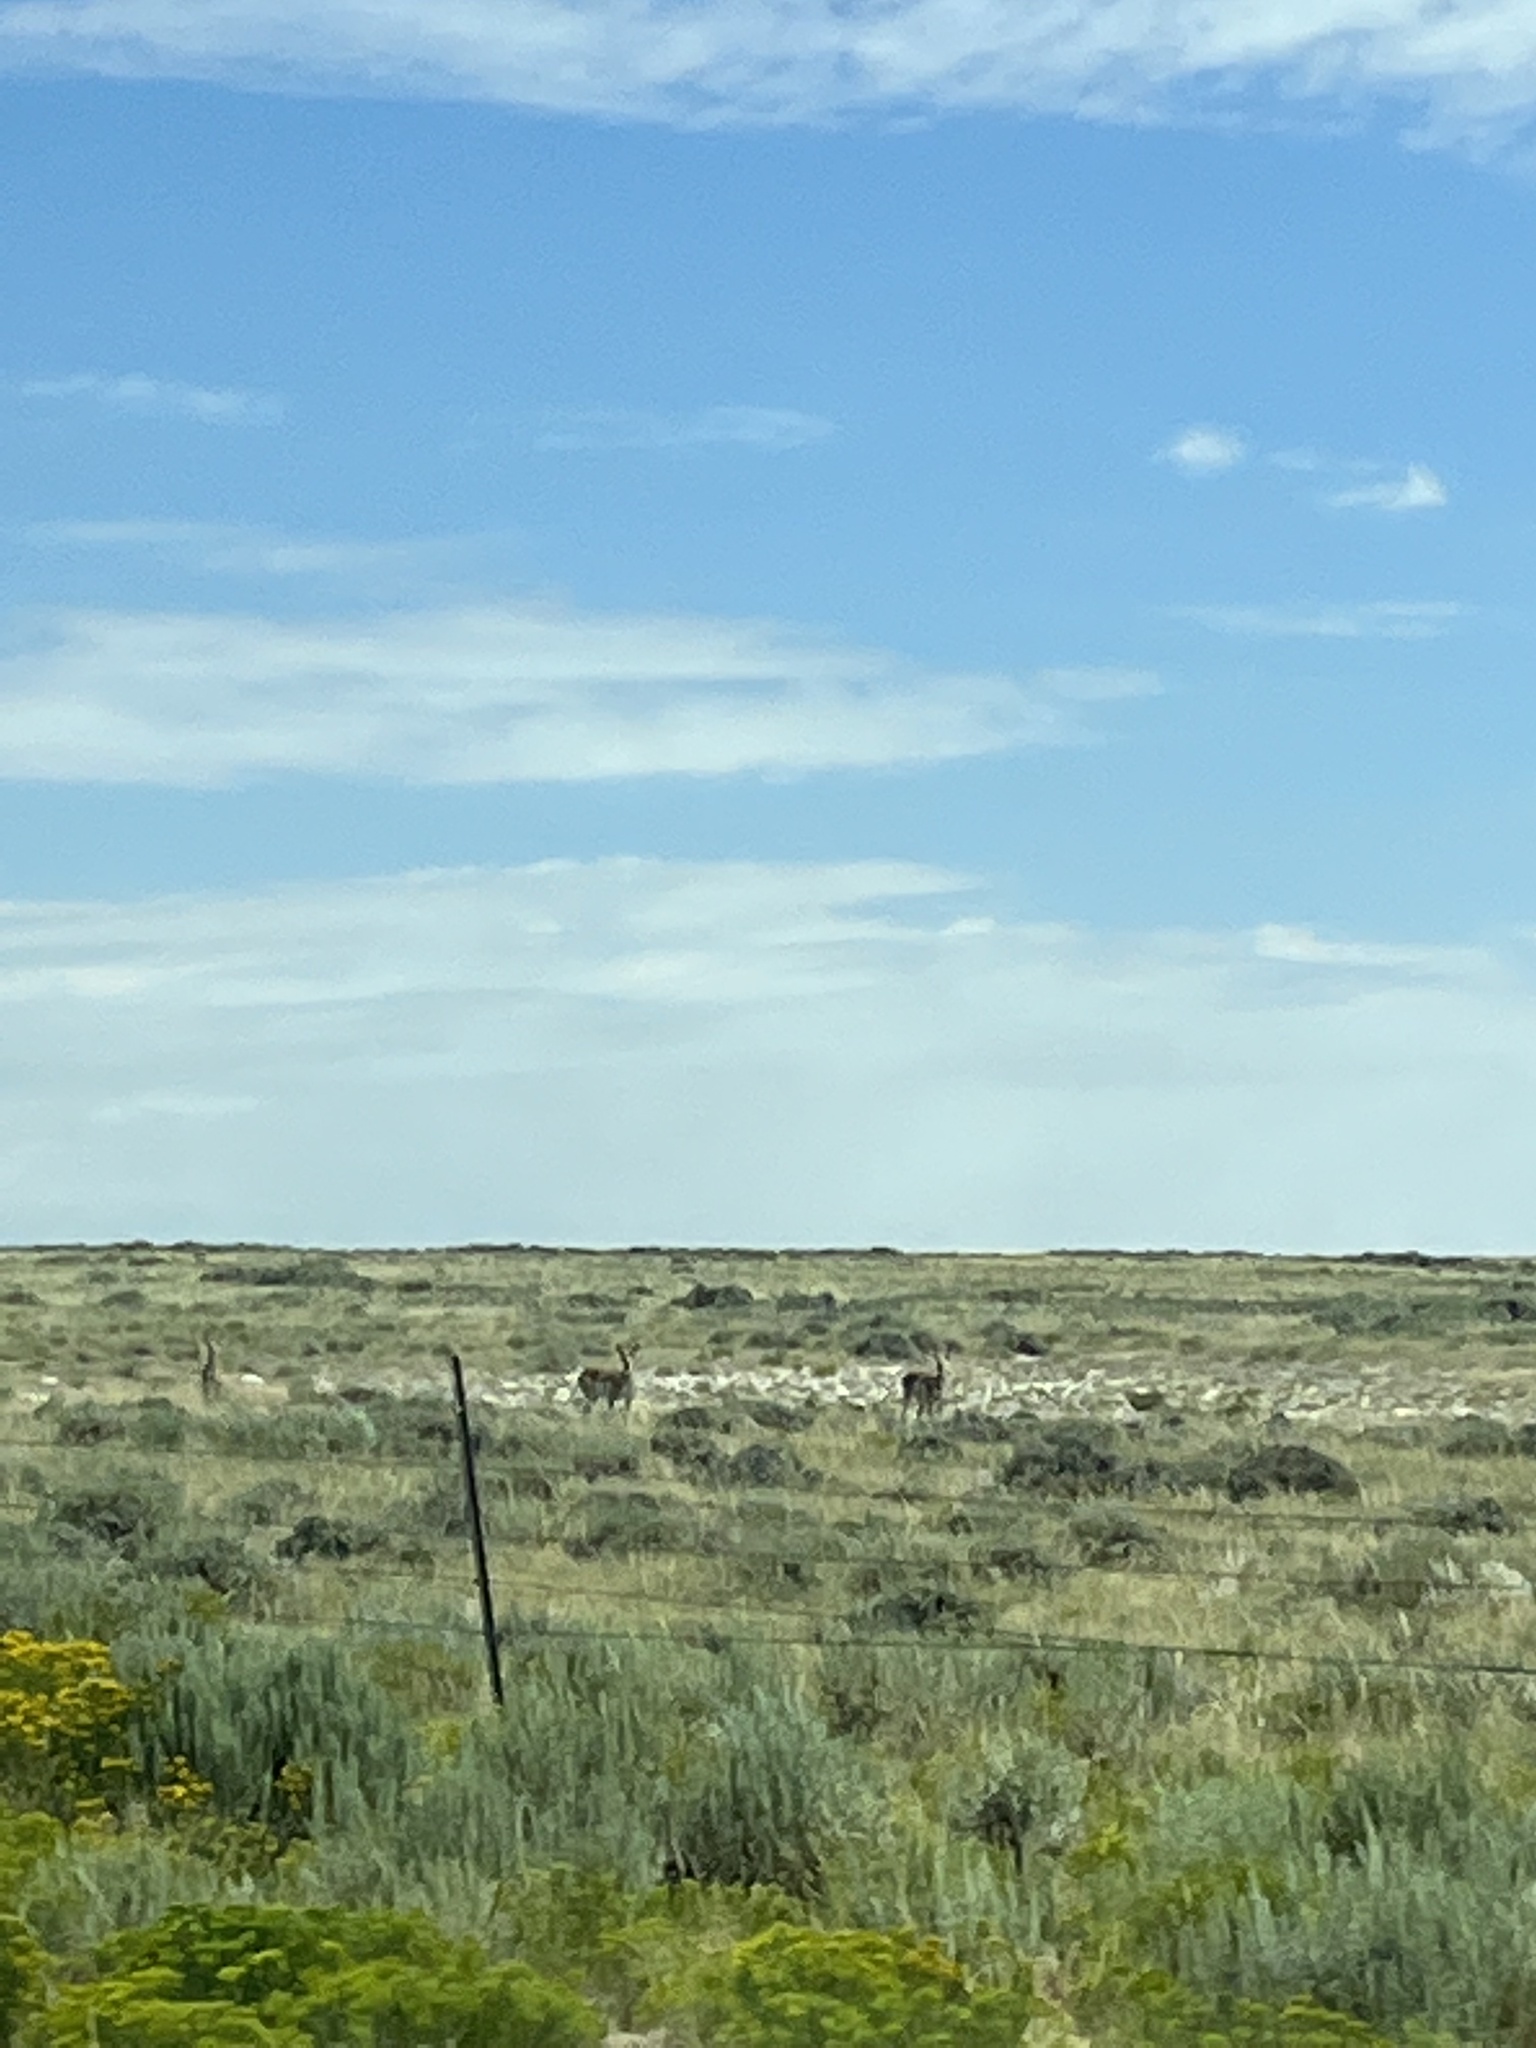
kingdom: Animalia
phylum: Chordata
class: Mammalia
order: Artiodactyla
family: Antilocapridae
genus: Antilocapra
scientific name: Antilocapra americana
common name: Pronghorn
